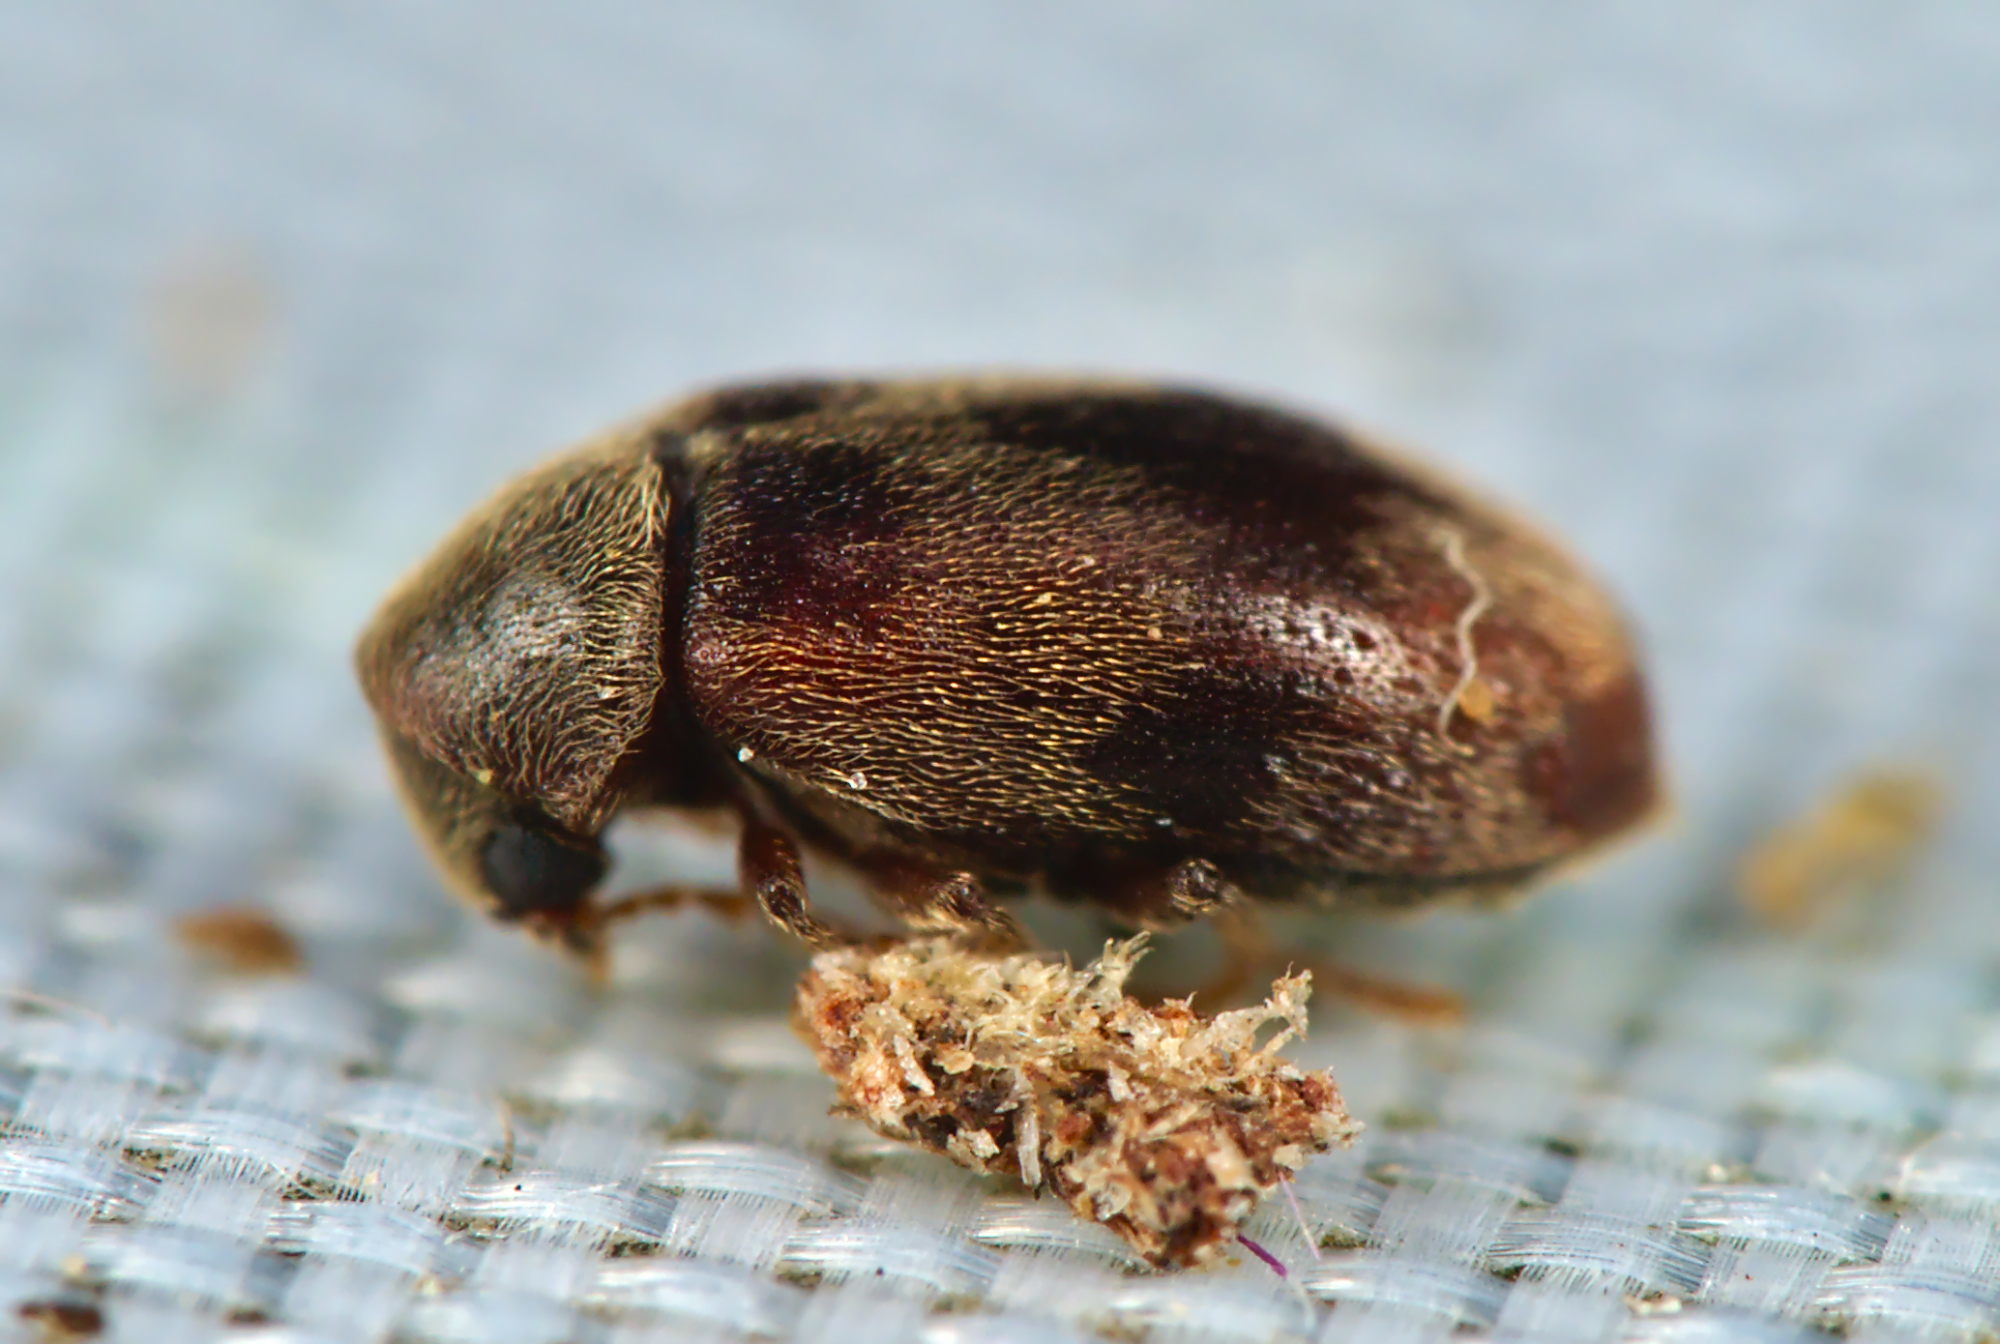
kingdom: Animalia
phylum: Arthropoda
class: Insecta
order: Coleoptera
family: Ptinidae
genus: Ochina
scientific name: Ochina ptinoides
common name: Ivy boring beetle
